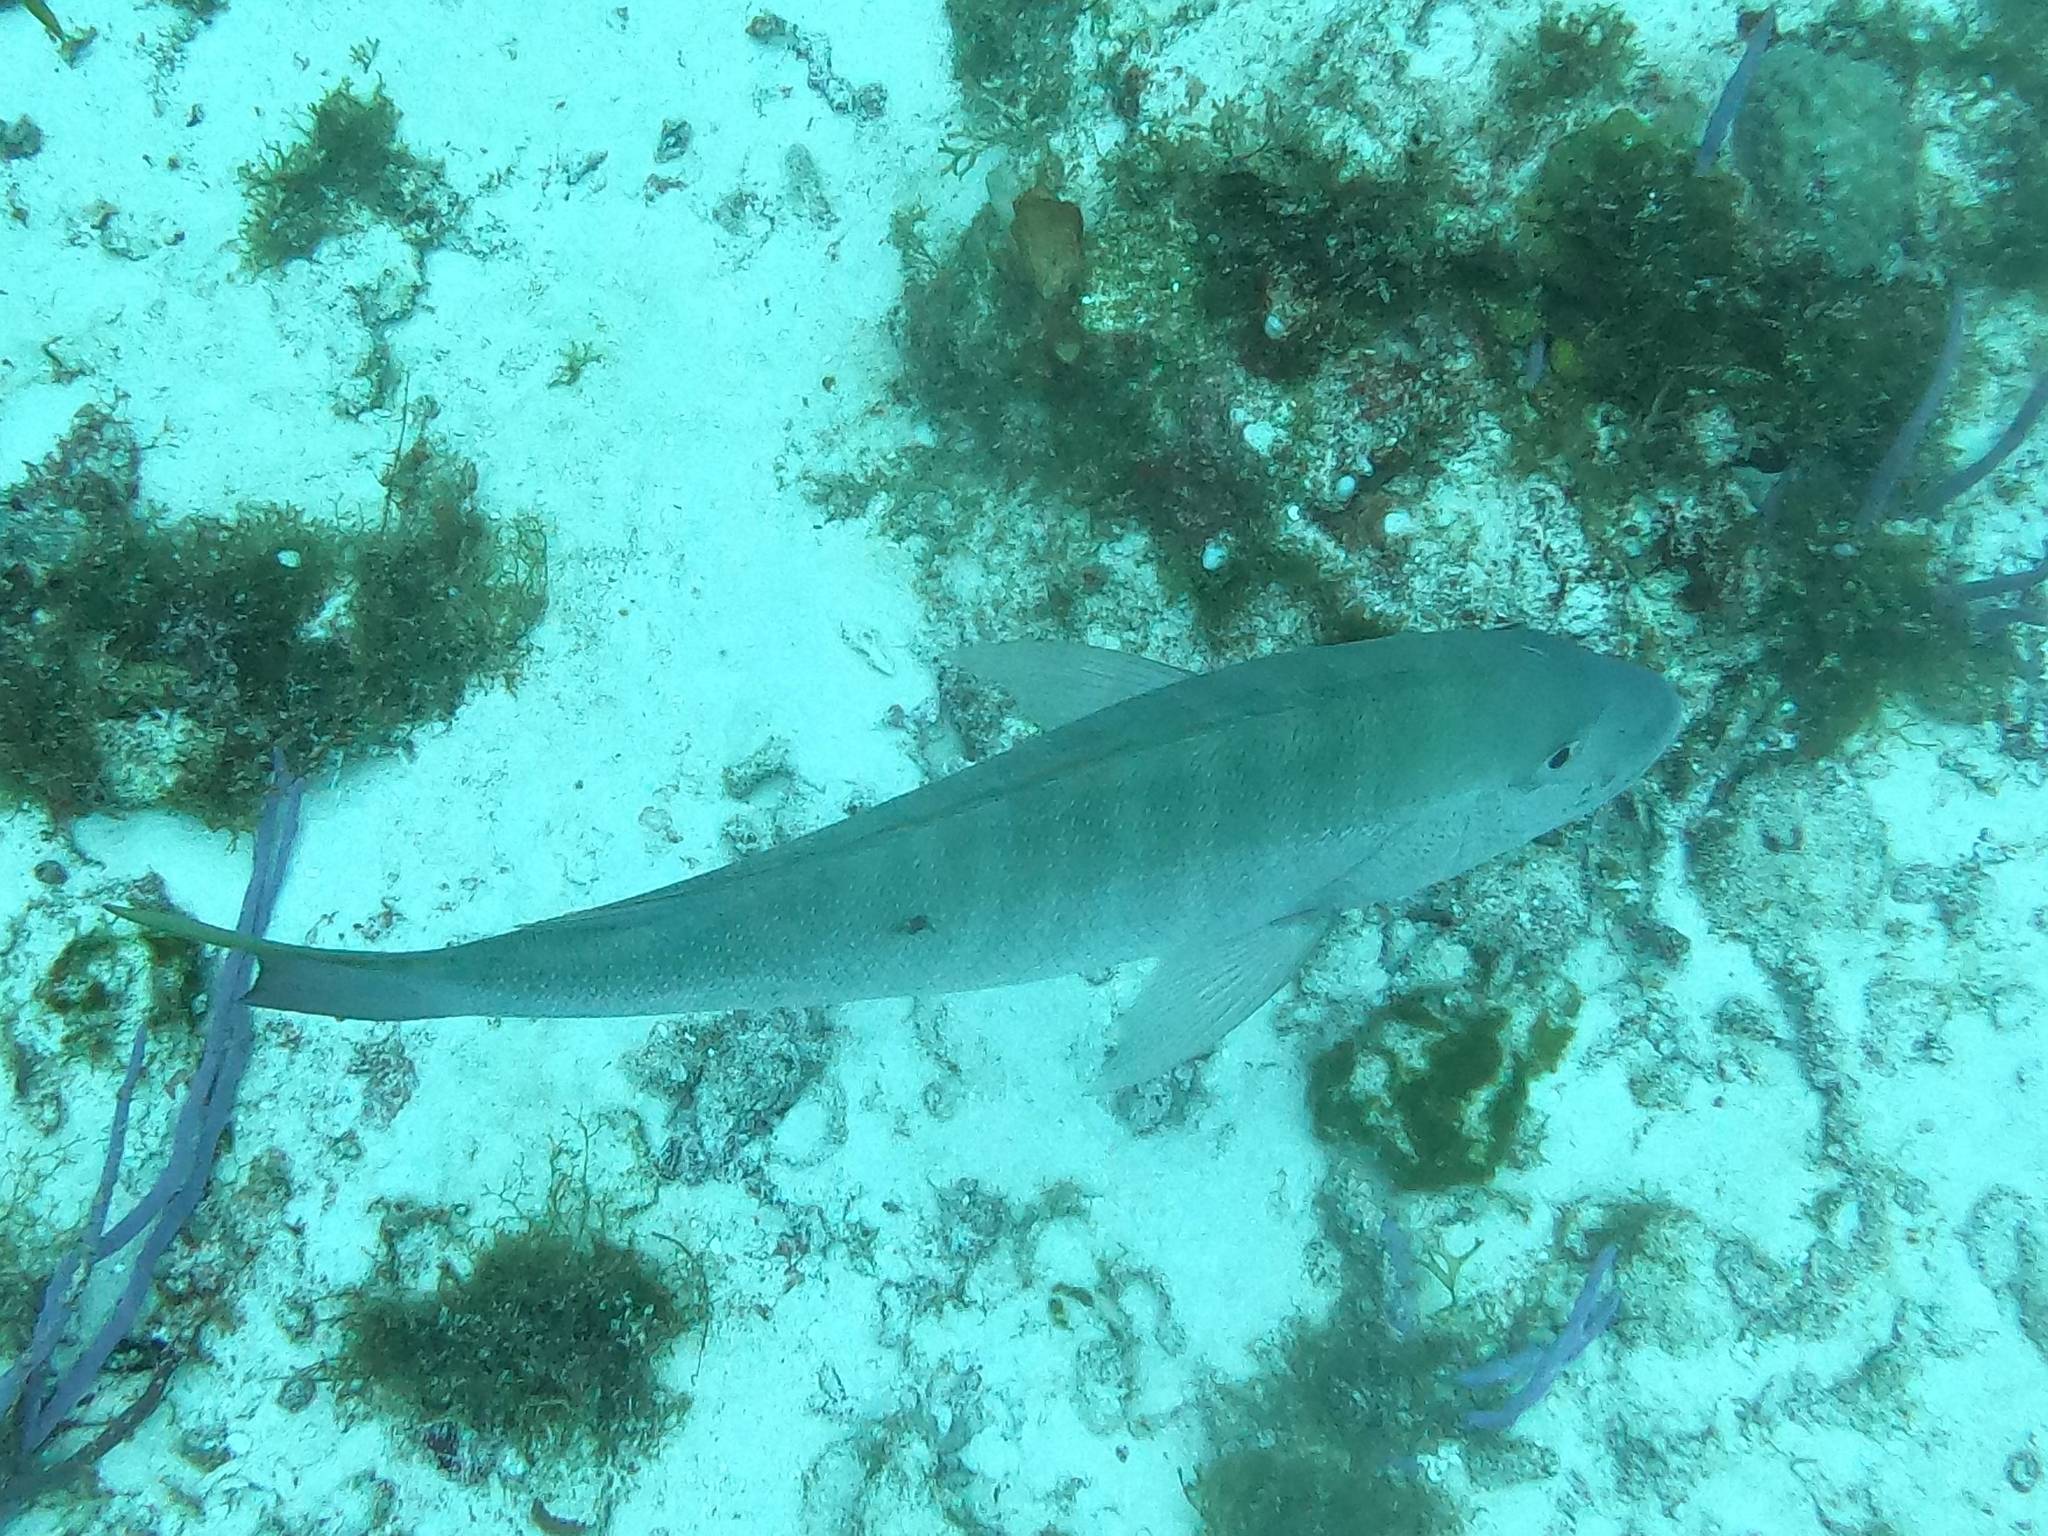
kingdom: Animalia
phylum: Chordata
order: Perciformes
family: Lutjanidae
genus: Lutjanus
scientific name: Lutjanus analis
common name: Mutton snapper
